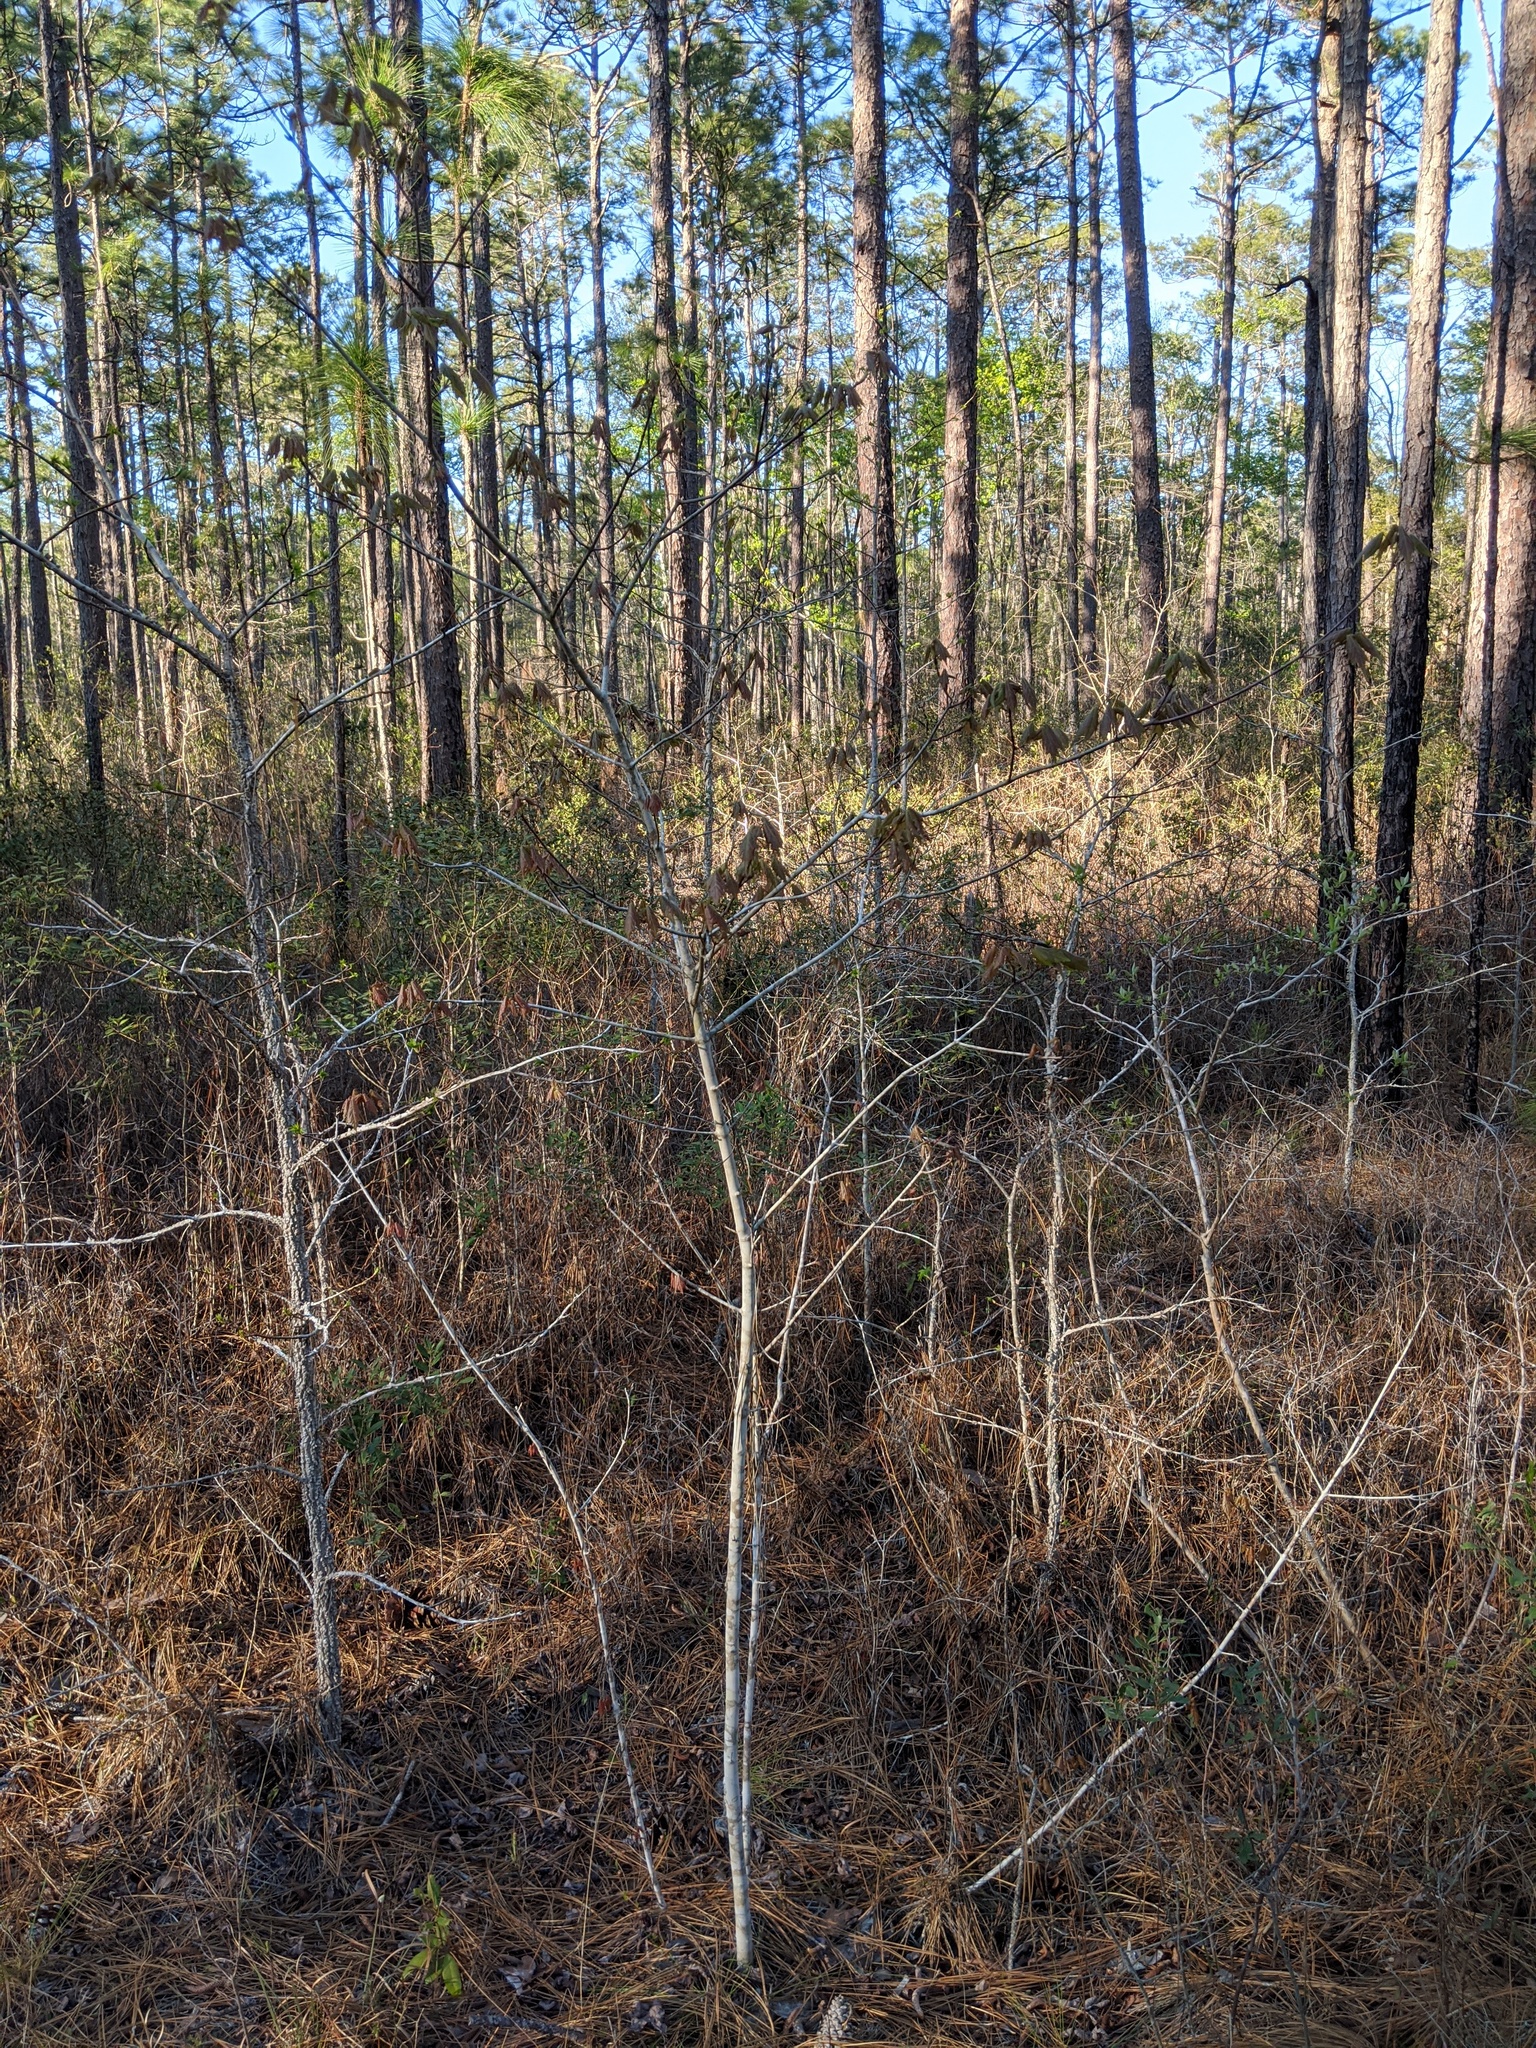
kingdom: Plantae
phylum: Tracheophyta
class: Magnoliopsida
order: Sapindales
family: Sapindaceae
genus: Acer
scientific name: Acer rubrum
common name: Red maple
